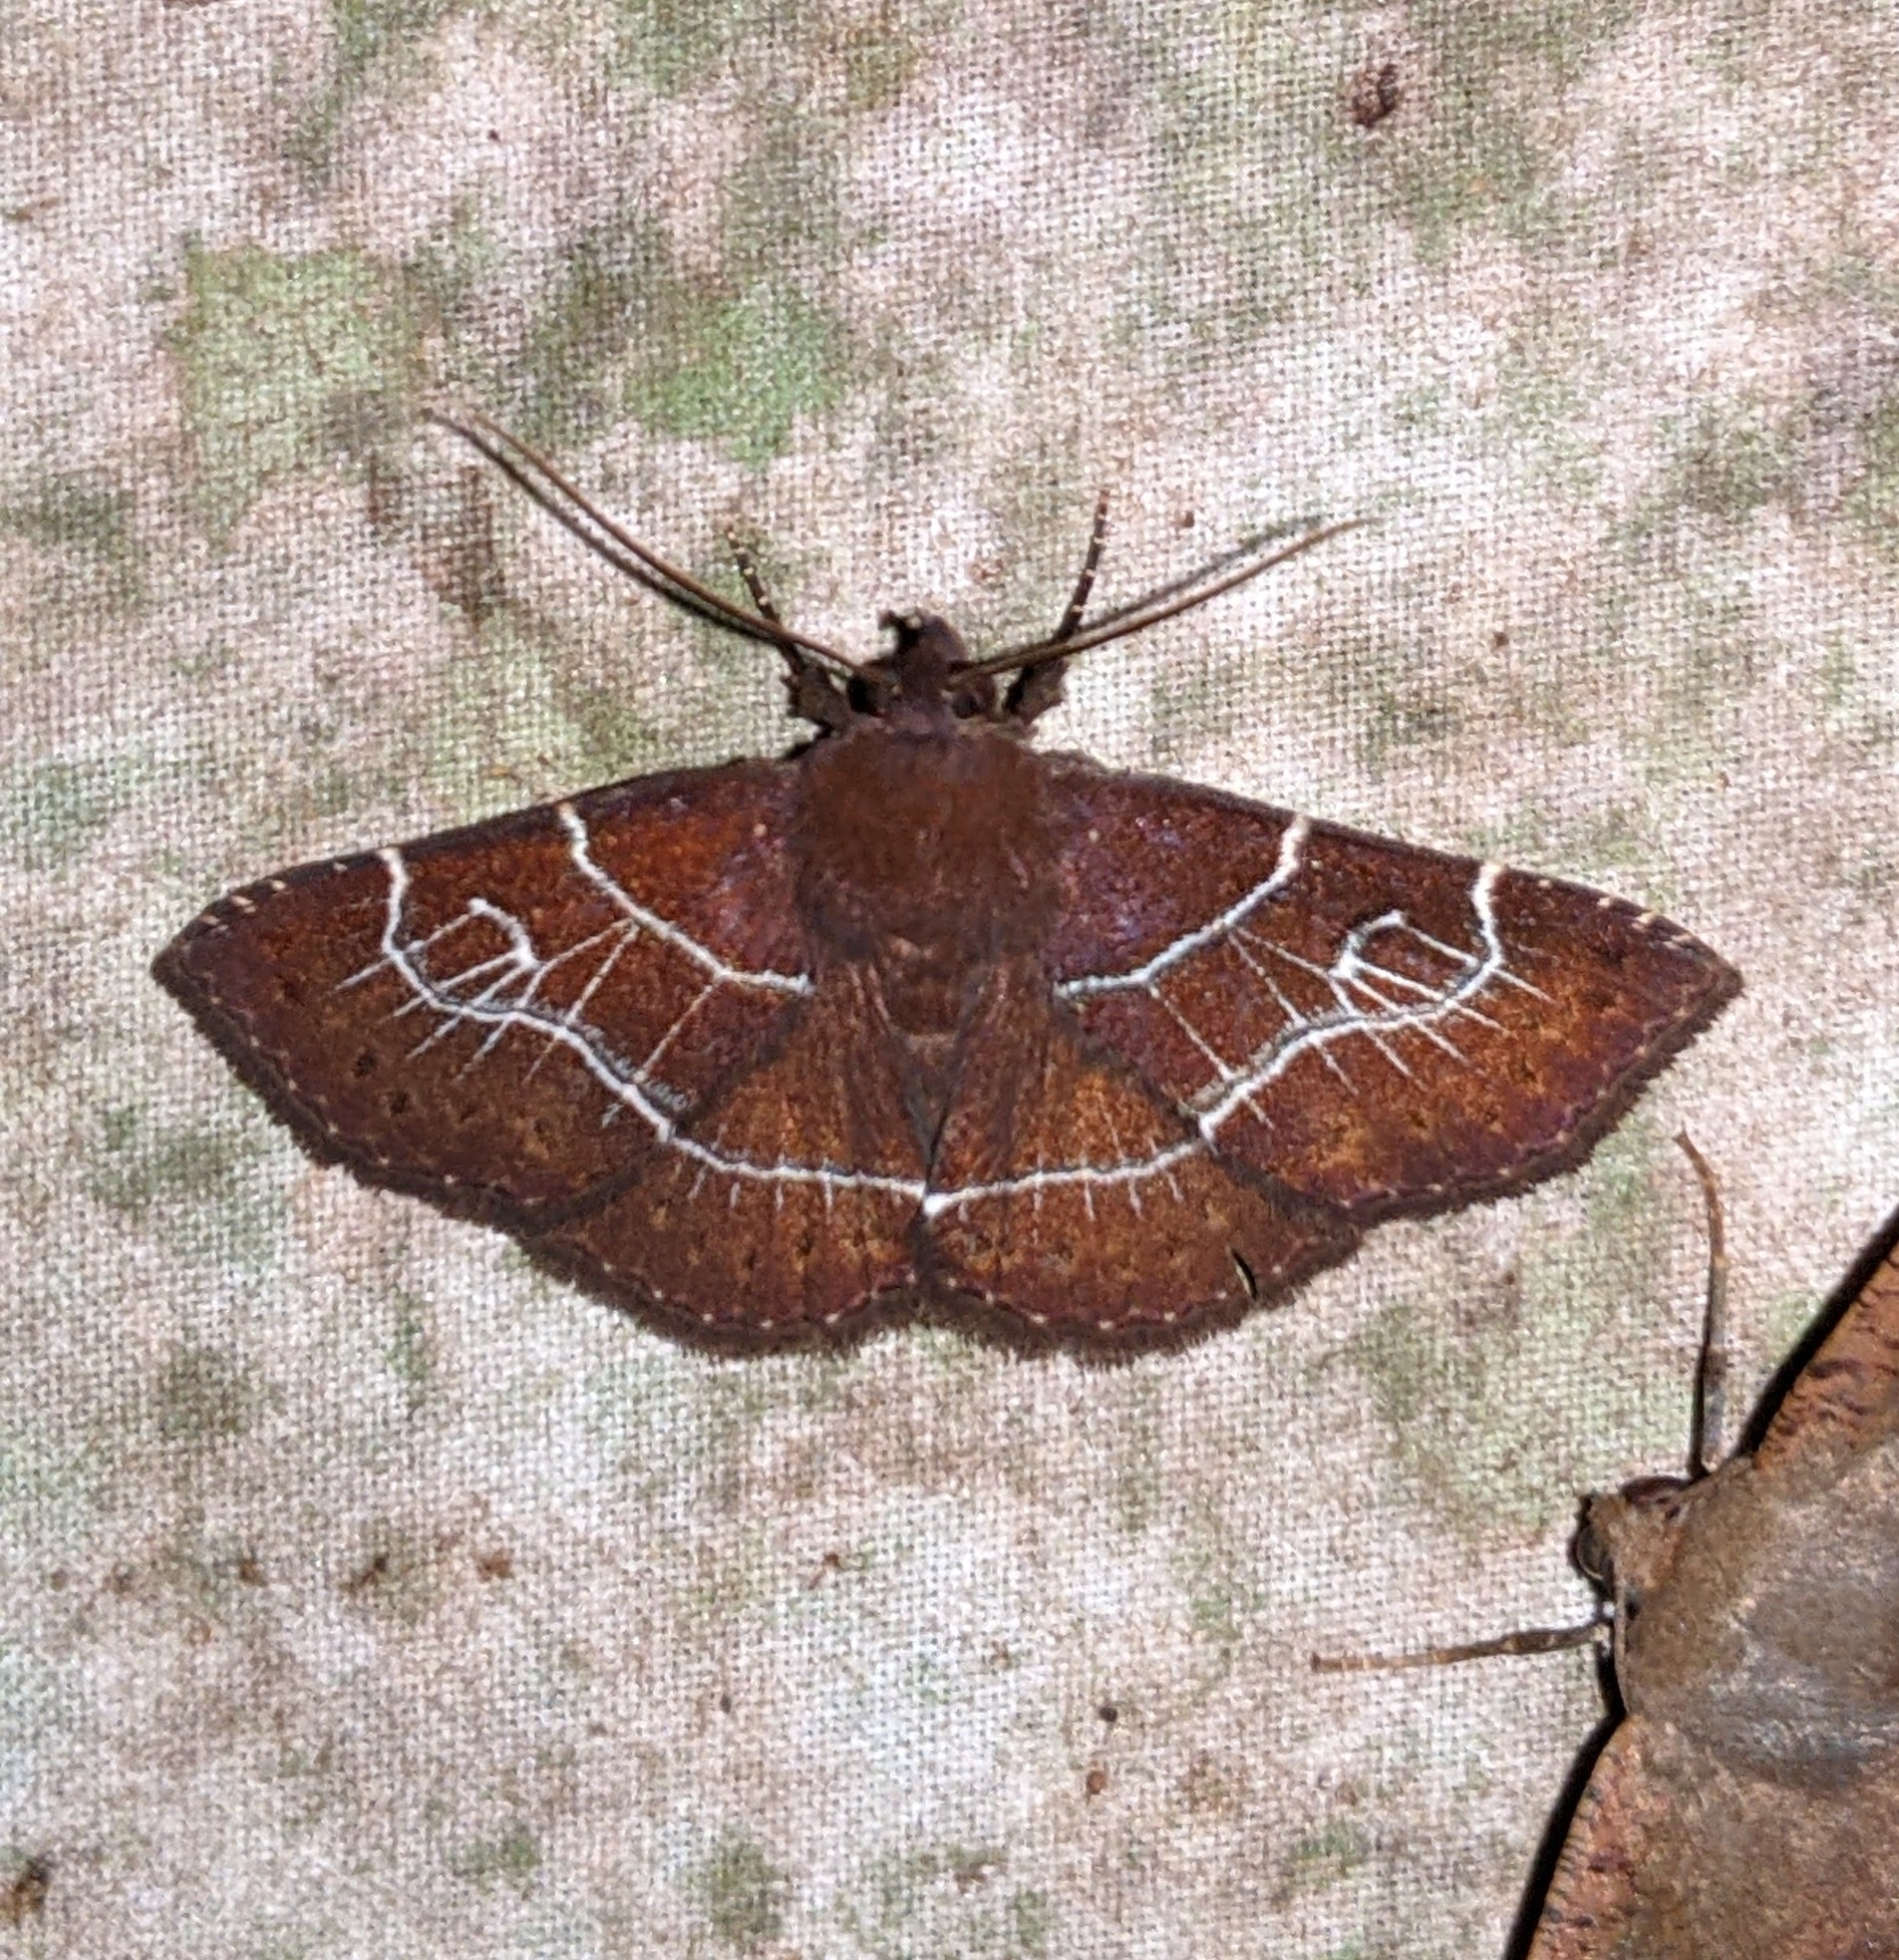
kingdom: Animalia
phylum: Arthropoda
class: Insecta
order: Lepidoptera
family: Erebidae
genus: Antiblemma
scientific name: Antiblemma harmodia
